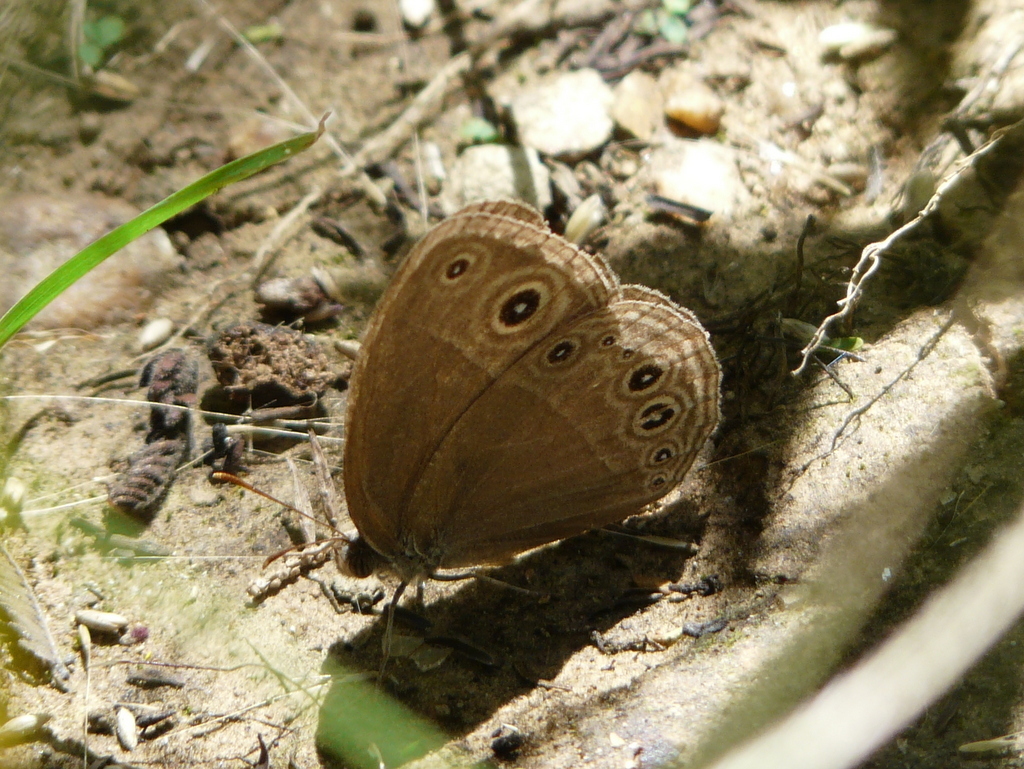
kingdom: Animalia
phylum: Arthropoda
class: Insecta
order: Lepidoptera
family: Nymphalidae
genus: Brakefieldia
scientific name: Brakefieldia simonsii
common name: Pale patroller
